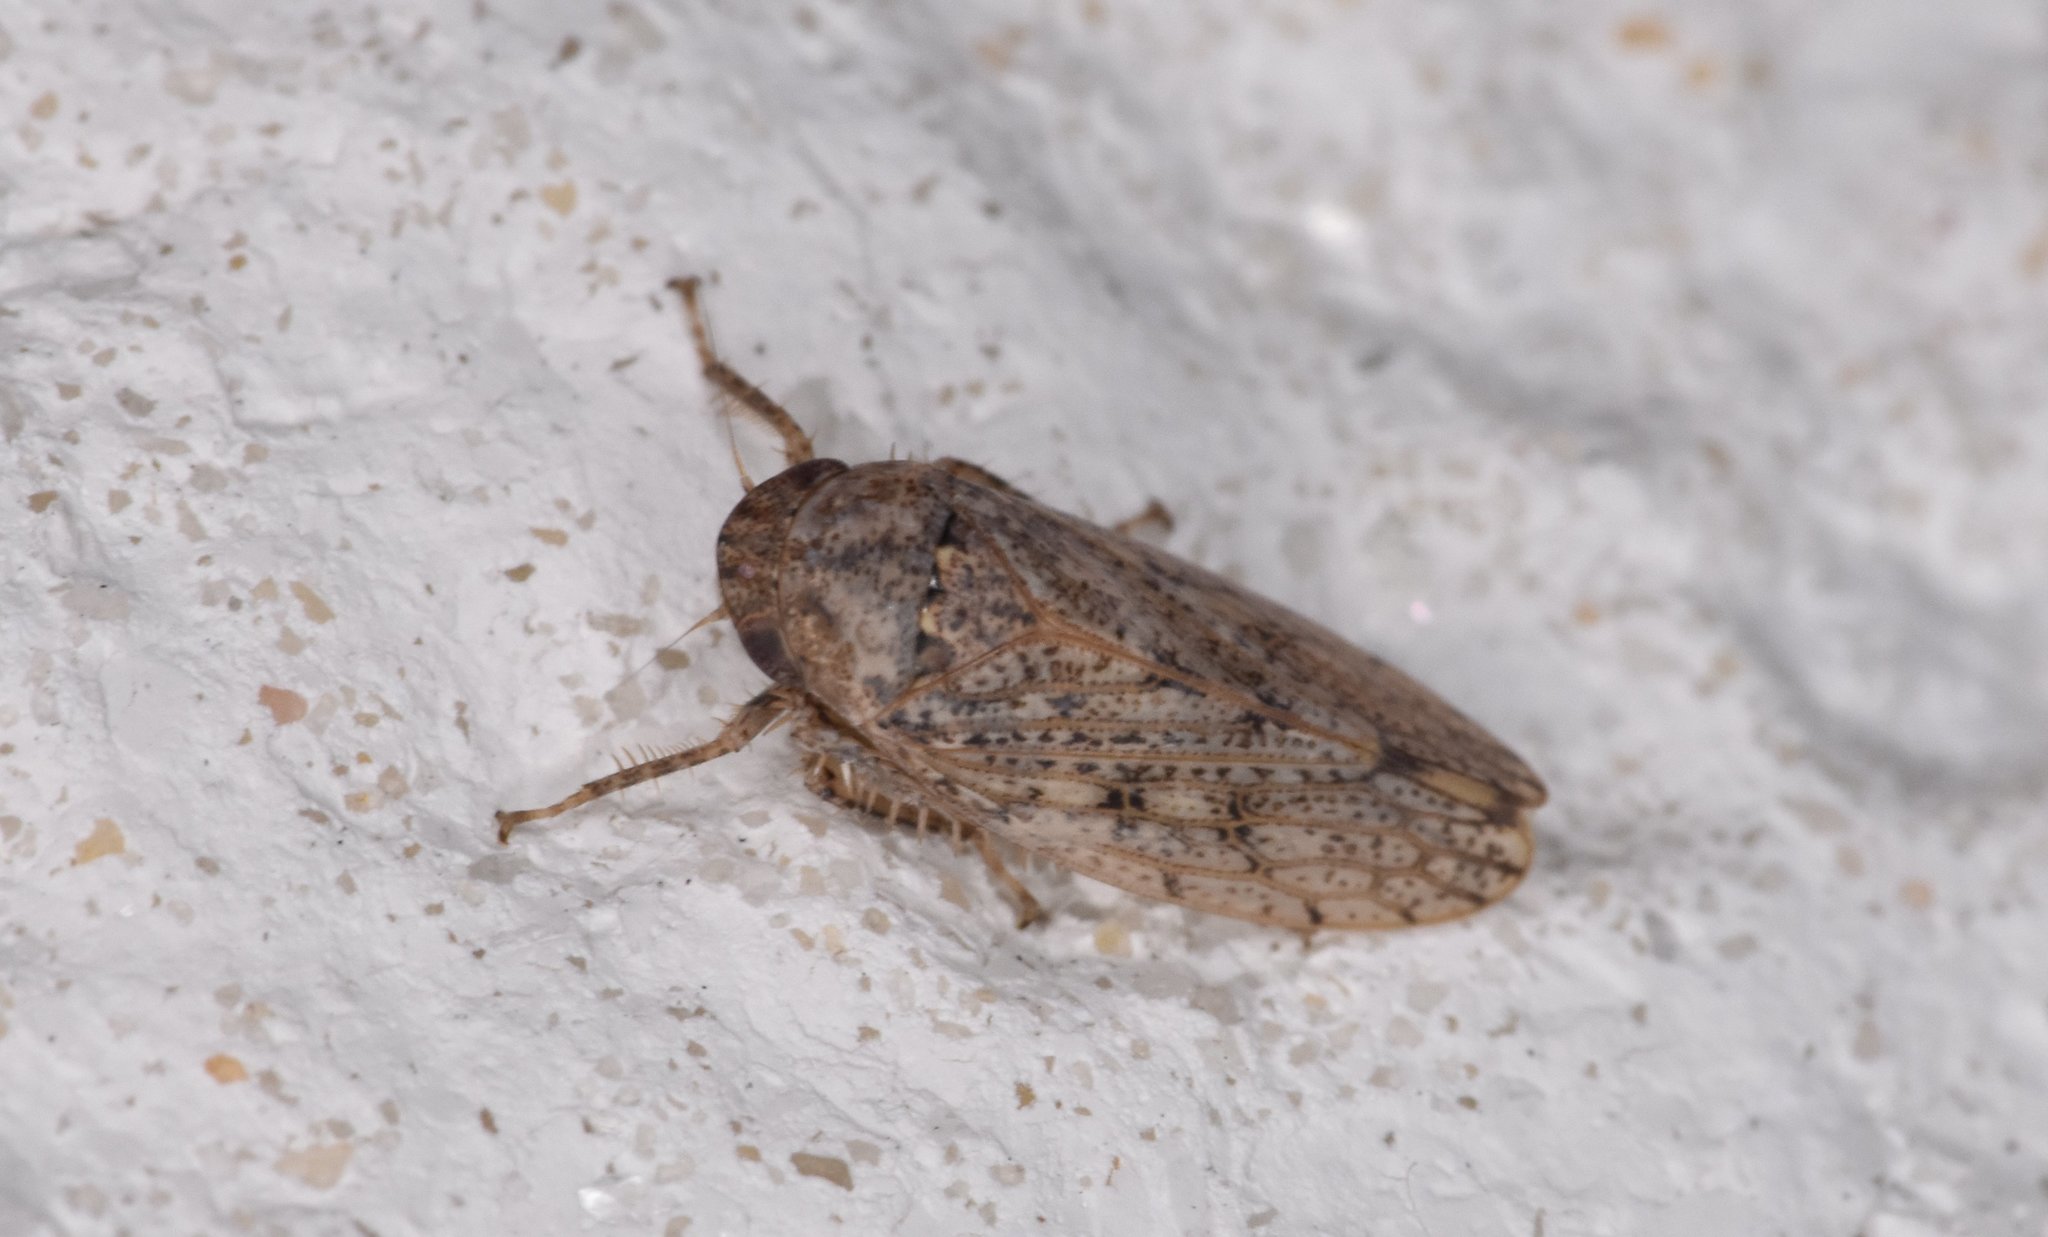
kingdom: Animalia
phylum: Arthropoda
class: Insecta
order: Hemiptera
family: Cicadellidae
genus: Curtara
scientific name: Curtara insularis
